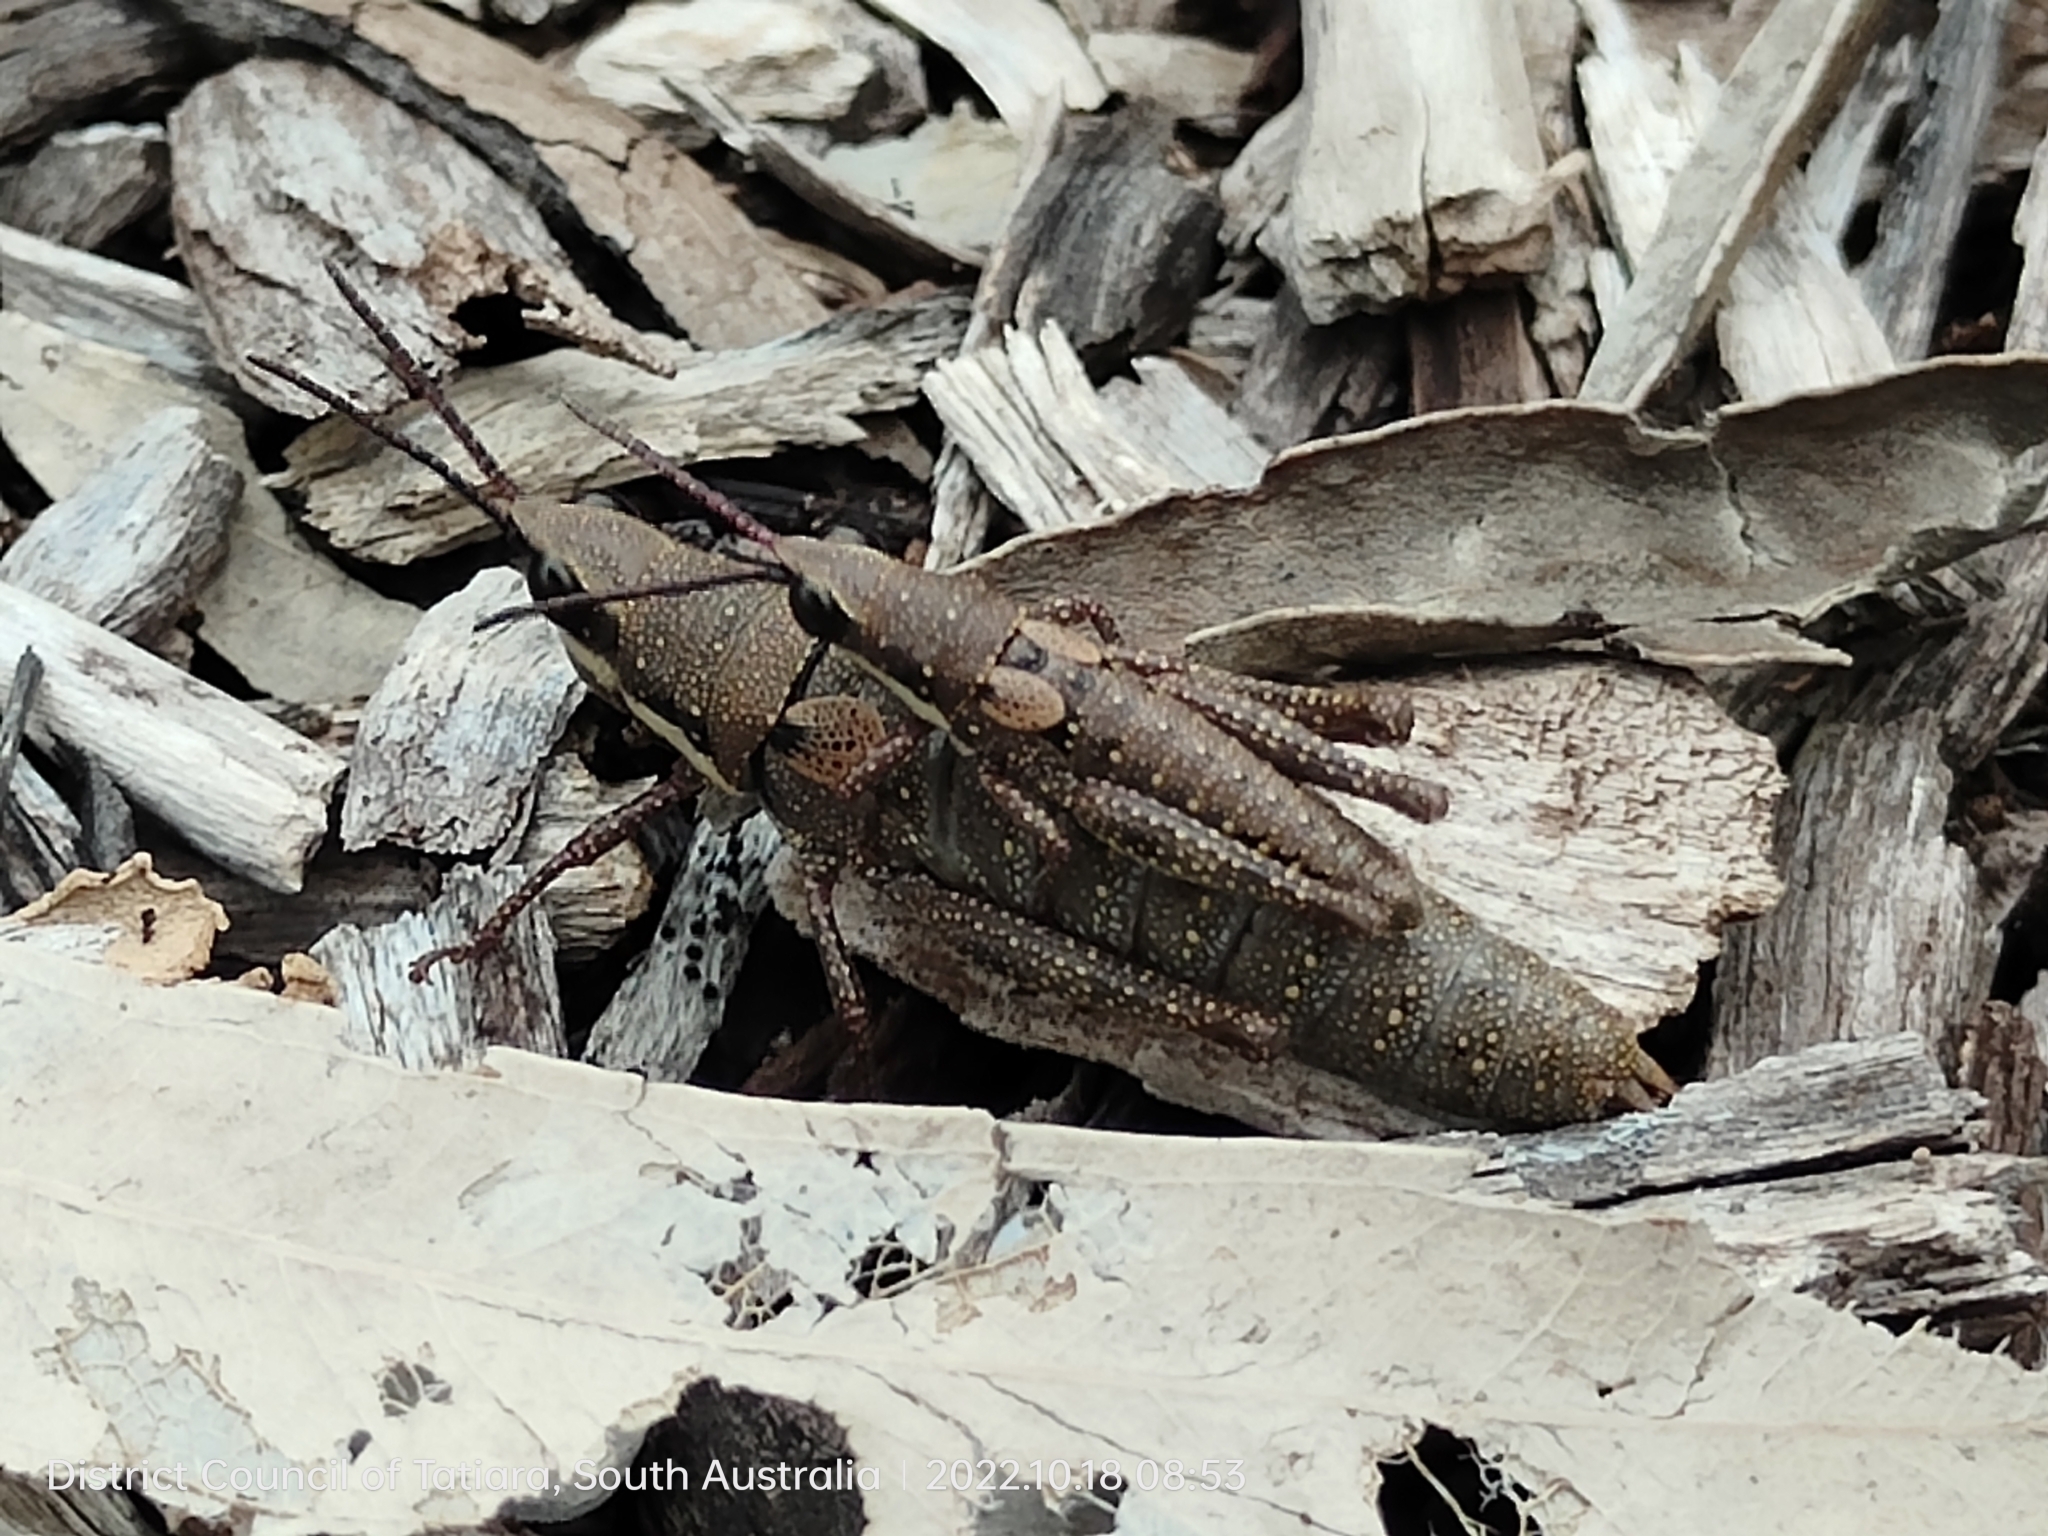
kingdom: Animalia
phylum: Arthropoda
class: Insecta
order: Orthoptera
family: Pyrgomorphidae
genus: Monistria
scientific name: Monistria discrepans
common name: Common pyrgomorph
